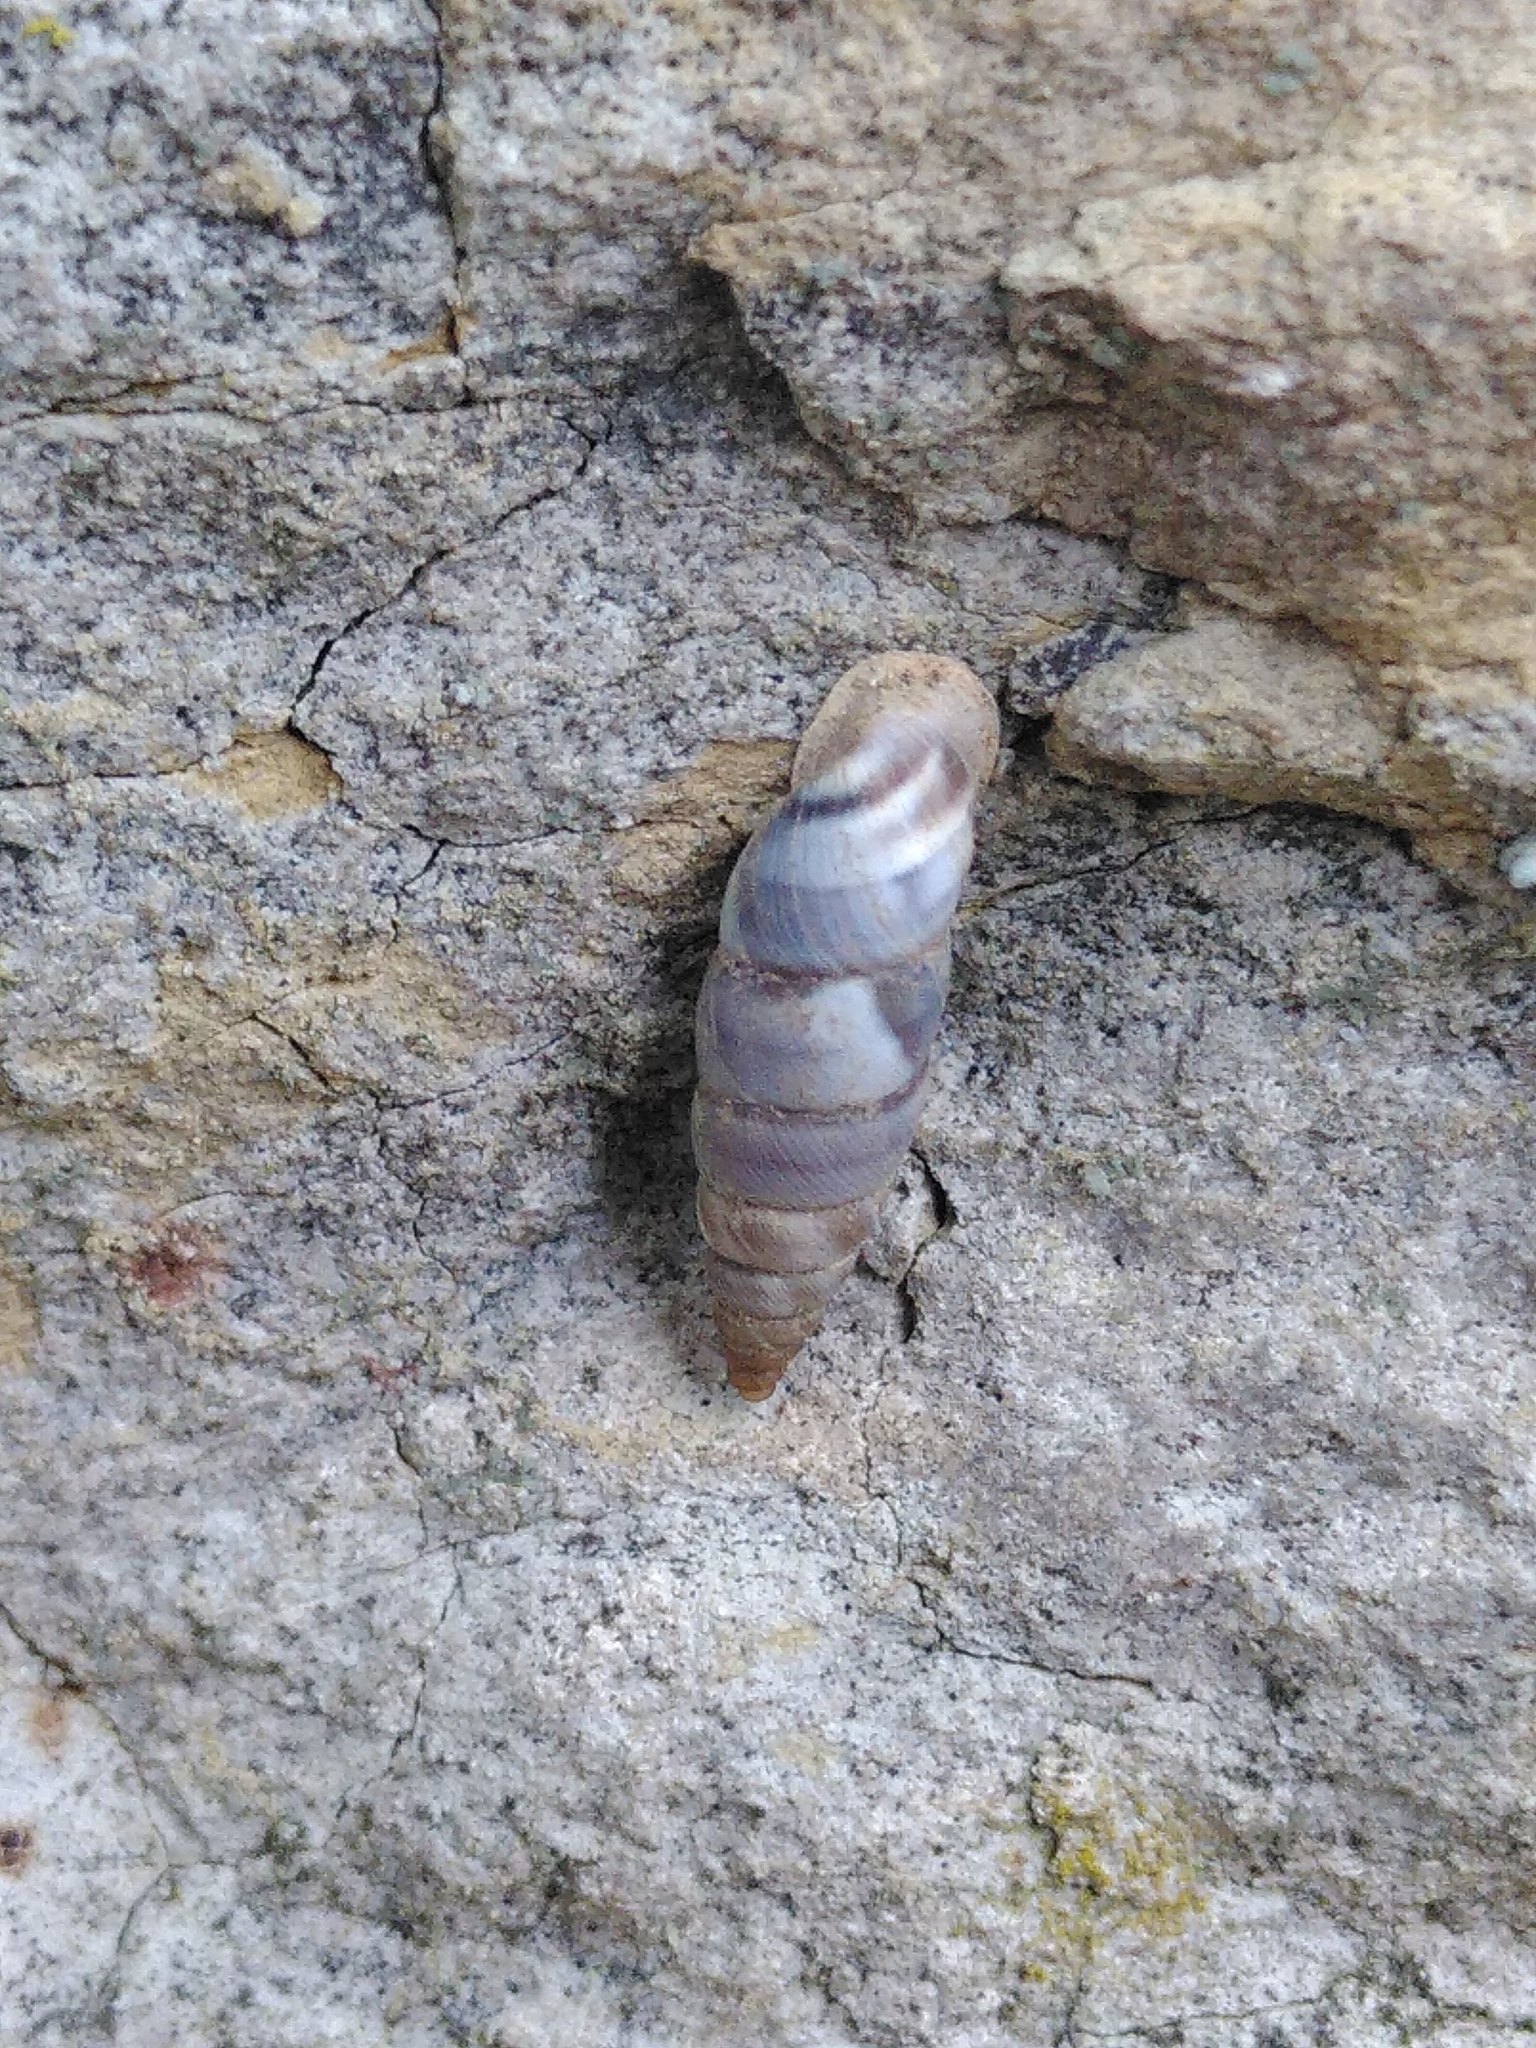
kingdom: Animalia
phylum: Mollusca
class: Gastropoda
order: Stylommatophora
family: Chondrinidae
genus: Solatopupa
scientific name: Solatopupa similis
